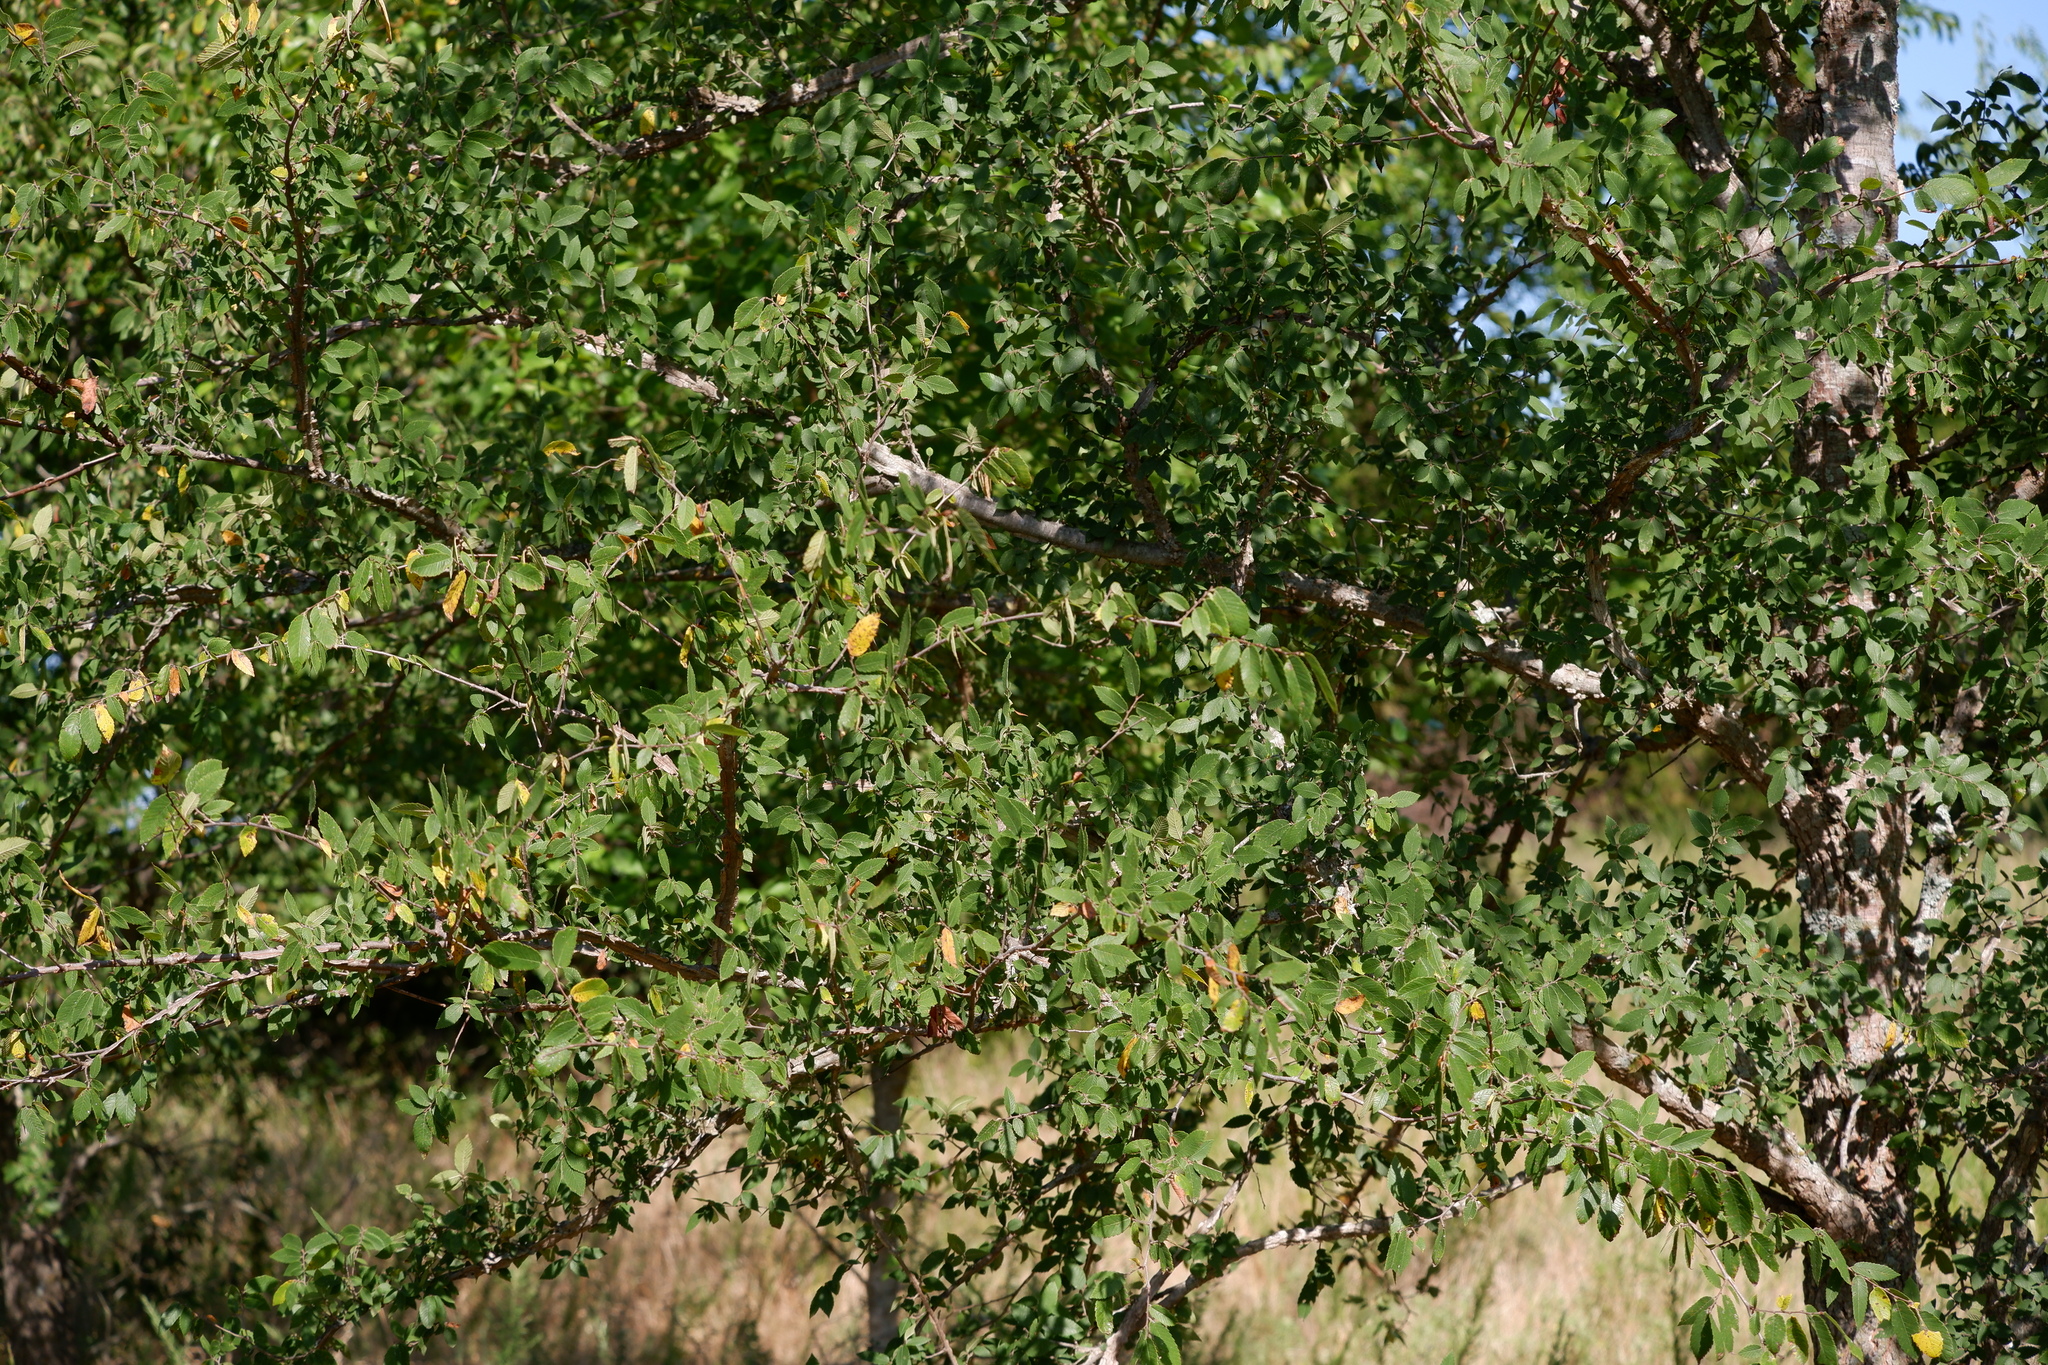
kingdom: Plantae
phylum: Tracheophyta
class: Magnoliopsida
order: Rosales
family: Ulmaceae
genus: Ulmus
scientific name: Ulmus alata
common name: Winged elm
